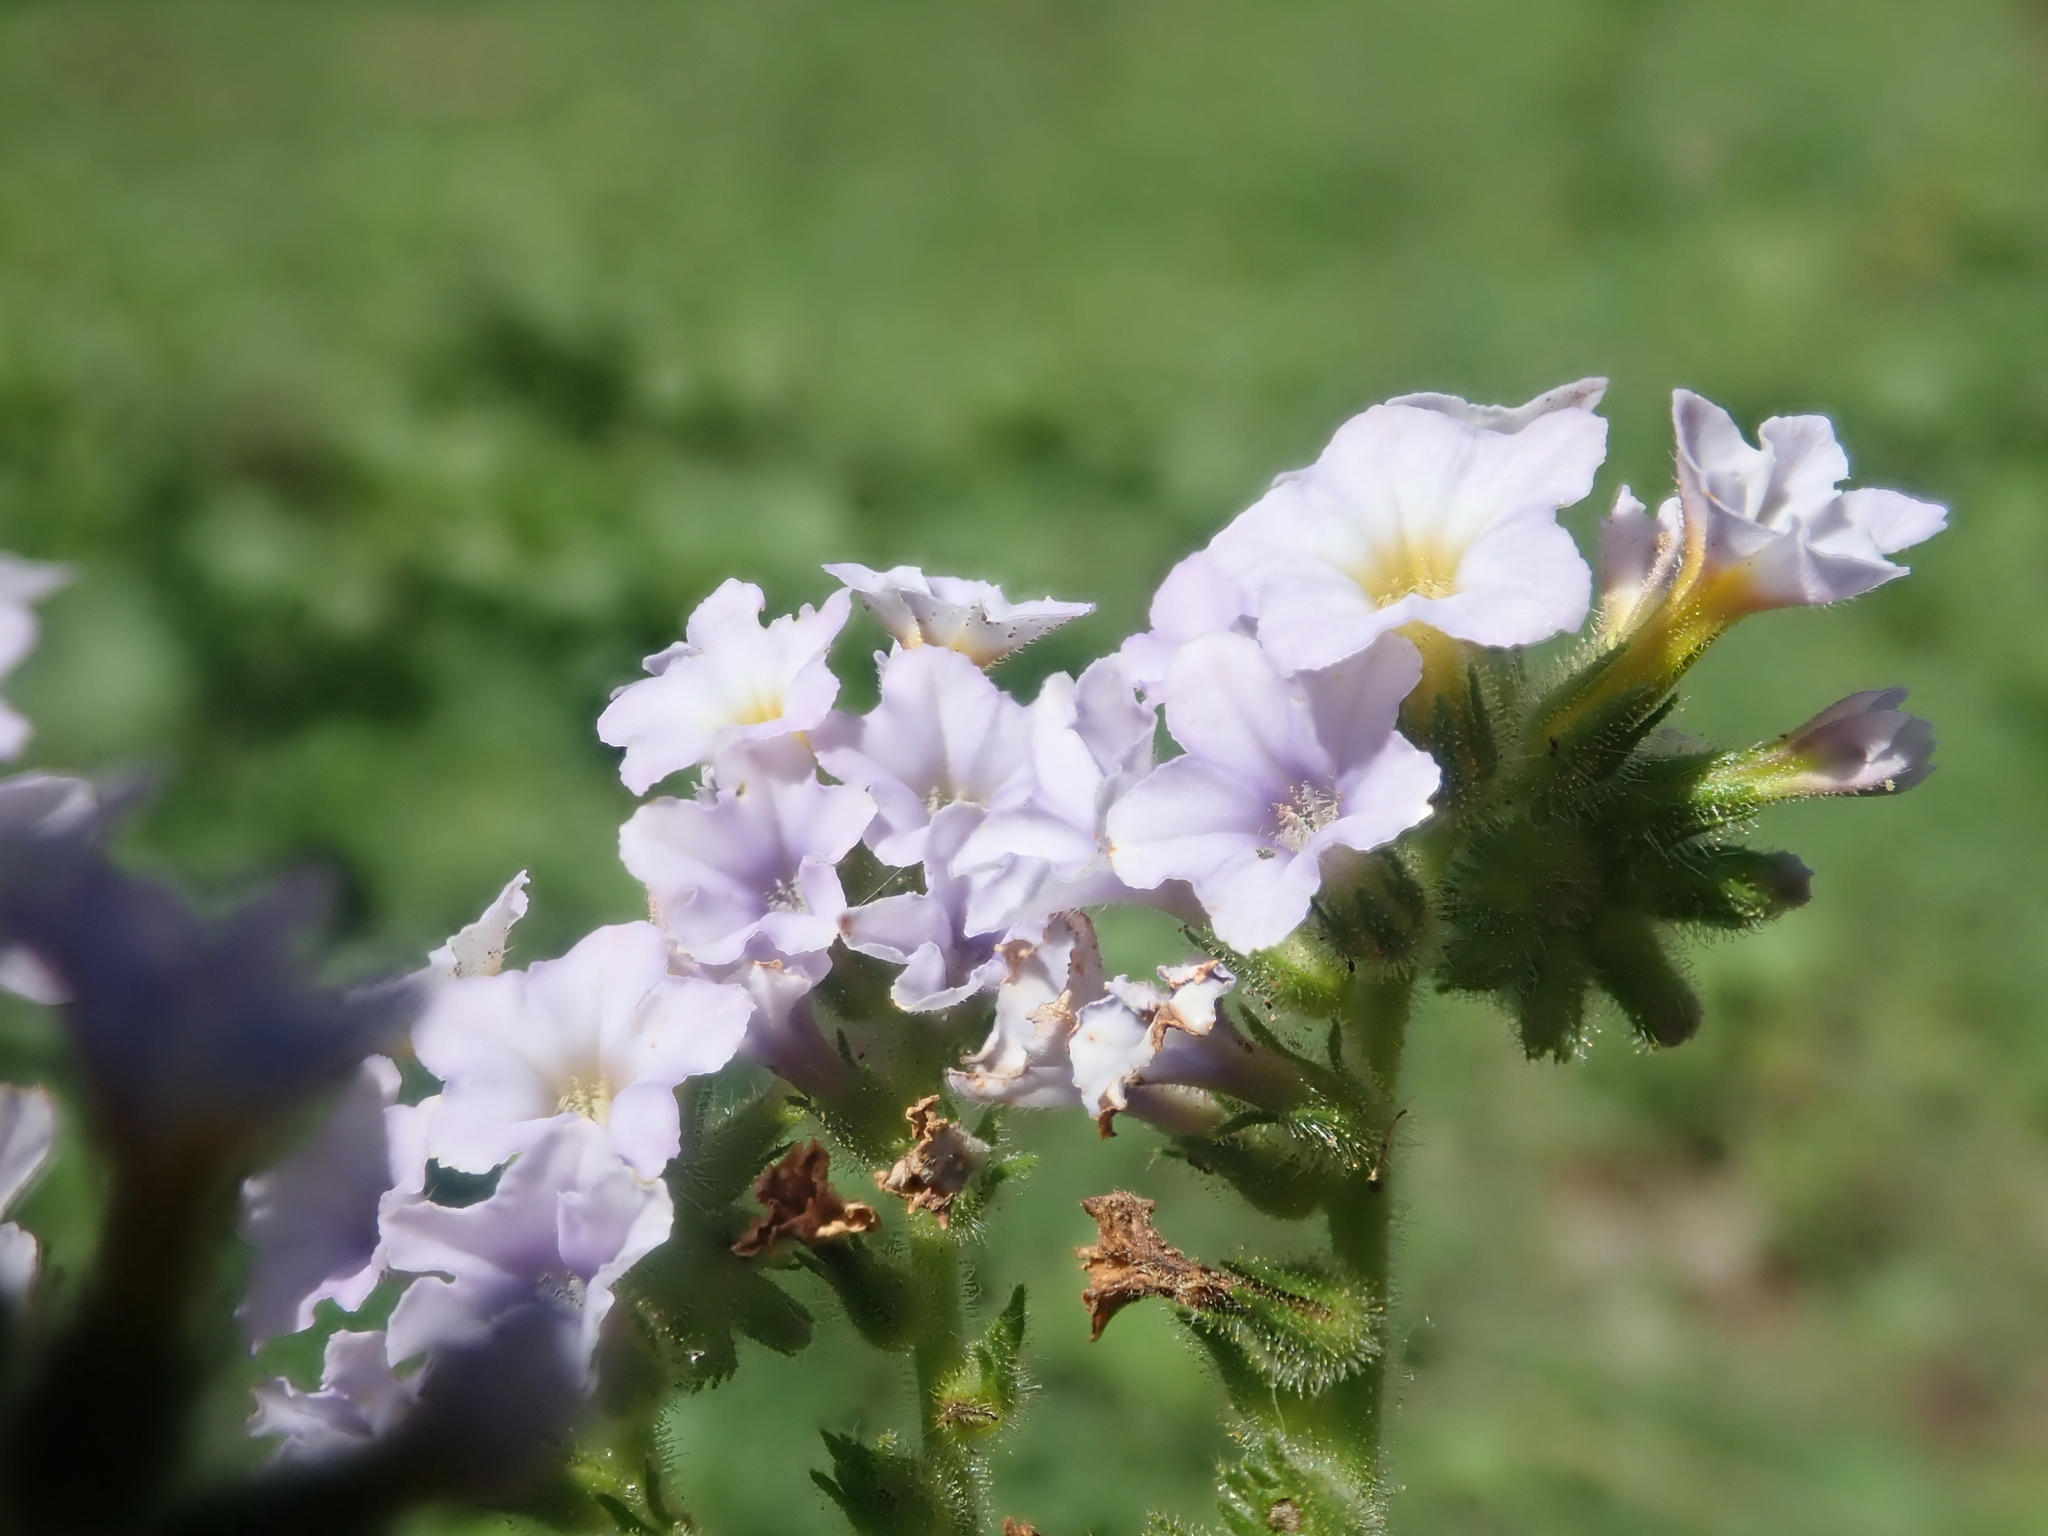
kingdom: Plantae
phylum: Tracheophyta
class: Magnoliopsida
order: Boraginales
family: Heliotropiaceae
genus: Heliotropium
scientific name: Heliotropium amplexicaule
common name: Clasping heliotrope
